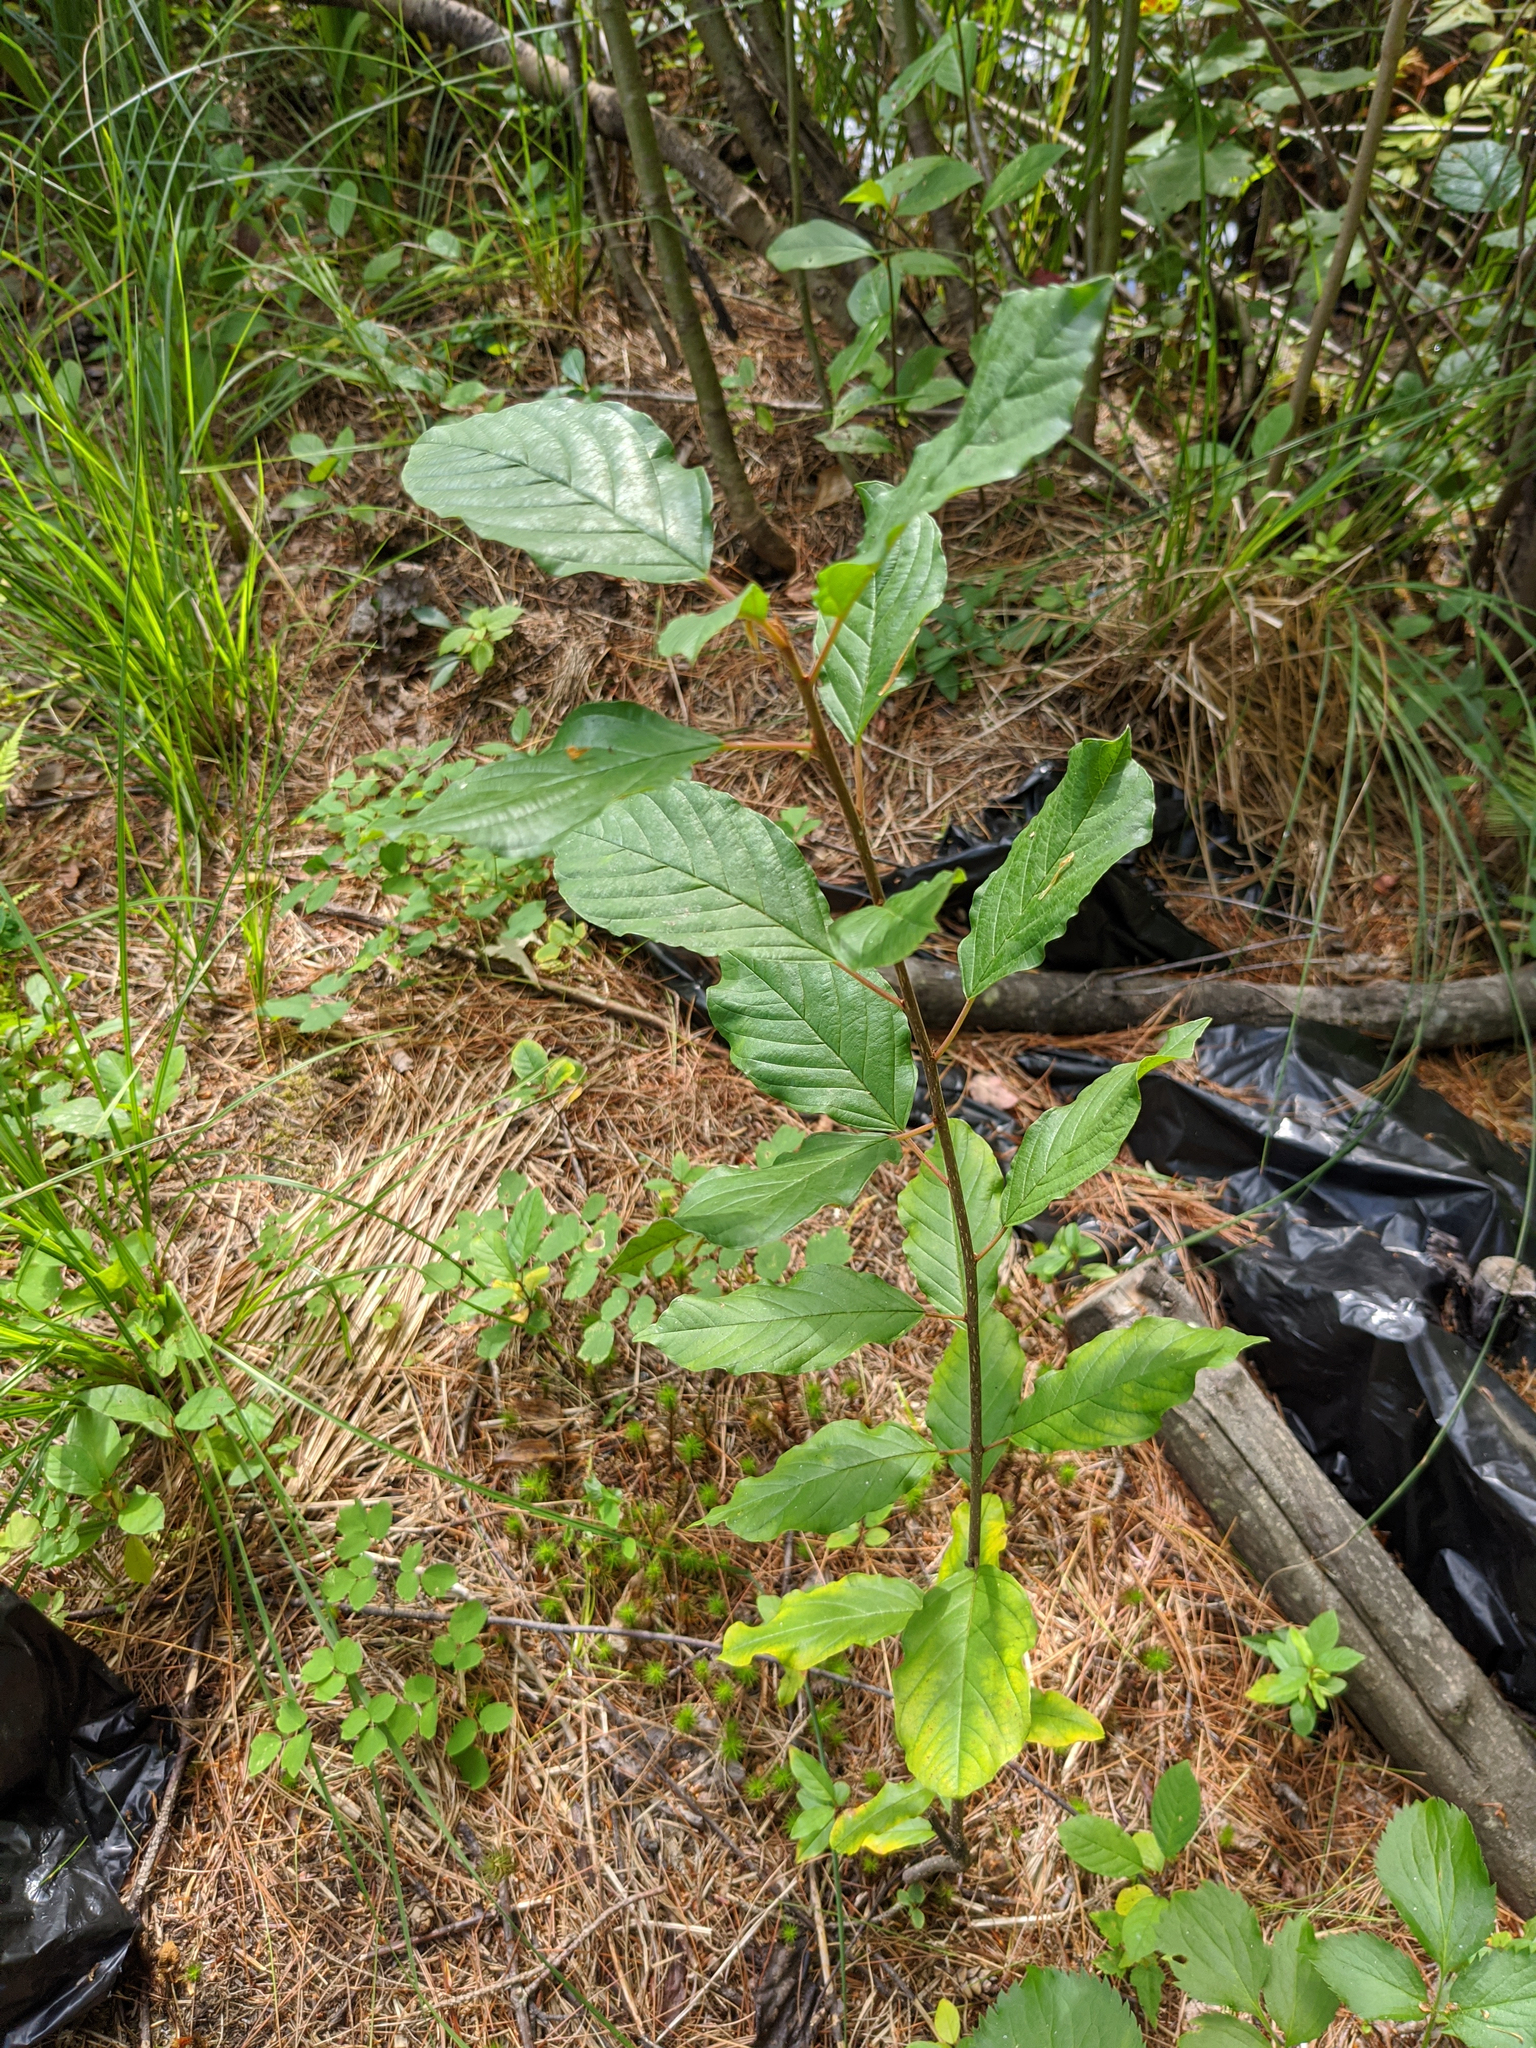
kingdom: Plantae
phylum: Tracheophyta
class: Magnoliopsida
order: Rosales
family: Rhamnaceae
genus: Frangula
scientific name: Frangula alnus
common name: Alder buckthorn
